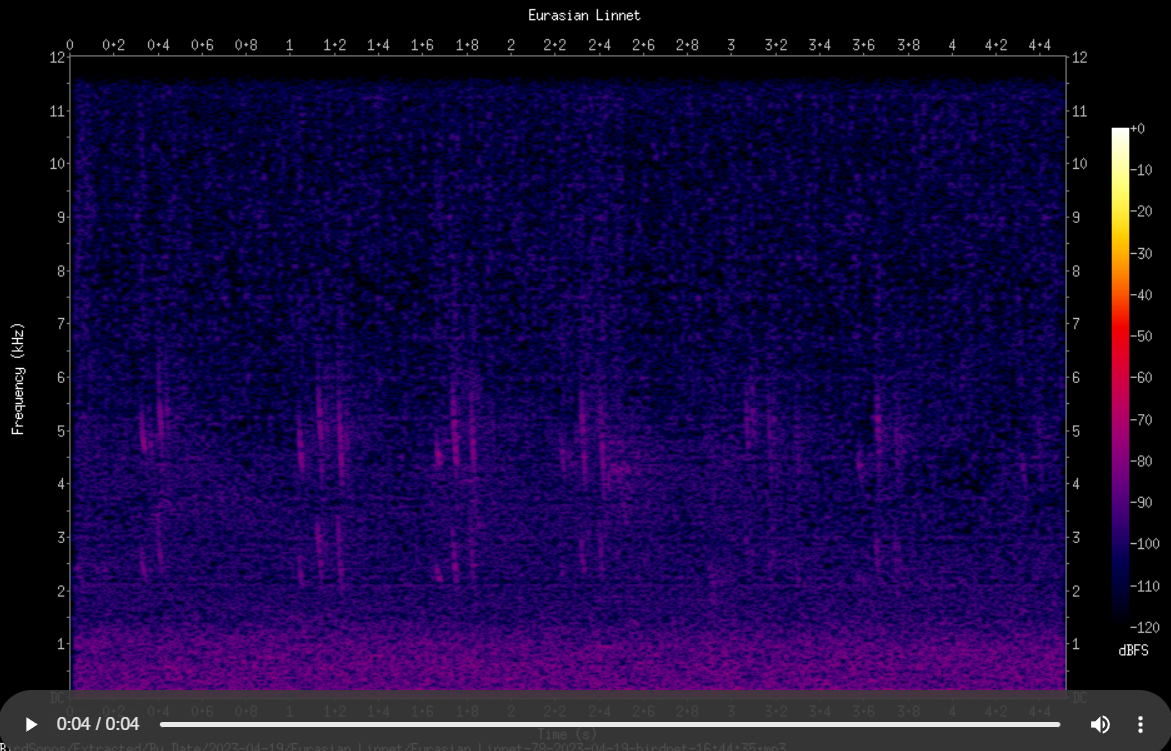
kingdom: Animalia
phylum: Chordata
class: Aves
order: Passeriformes
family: Fringillidae
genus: Linaria
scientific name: Linaria cannabina
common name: Common linnet
